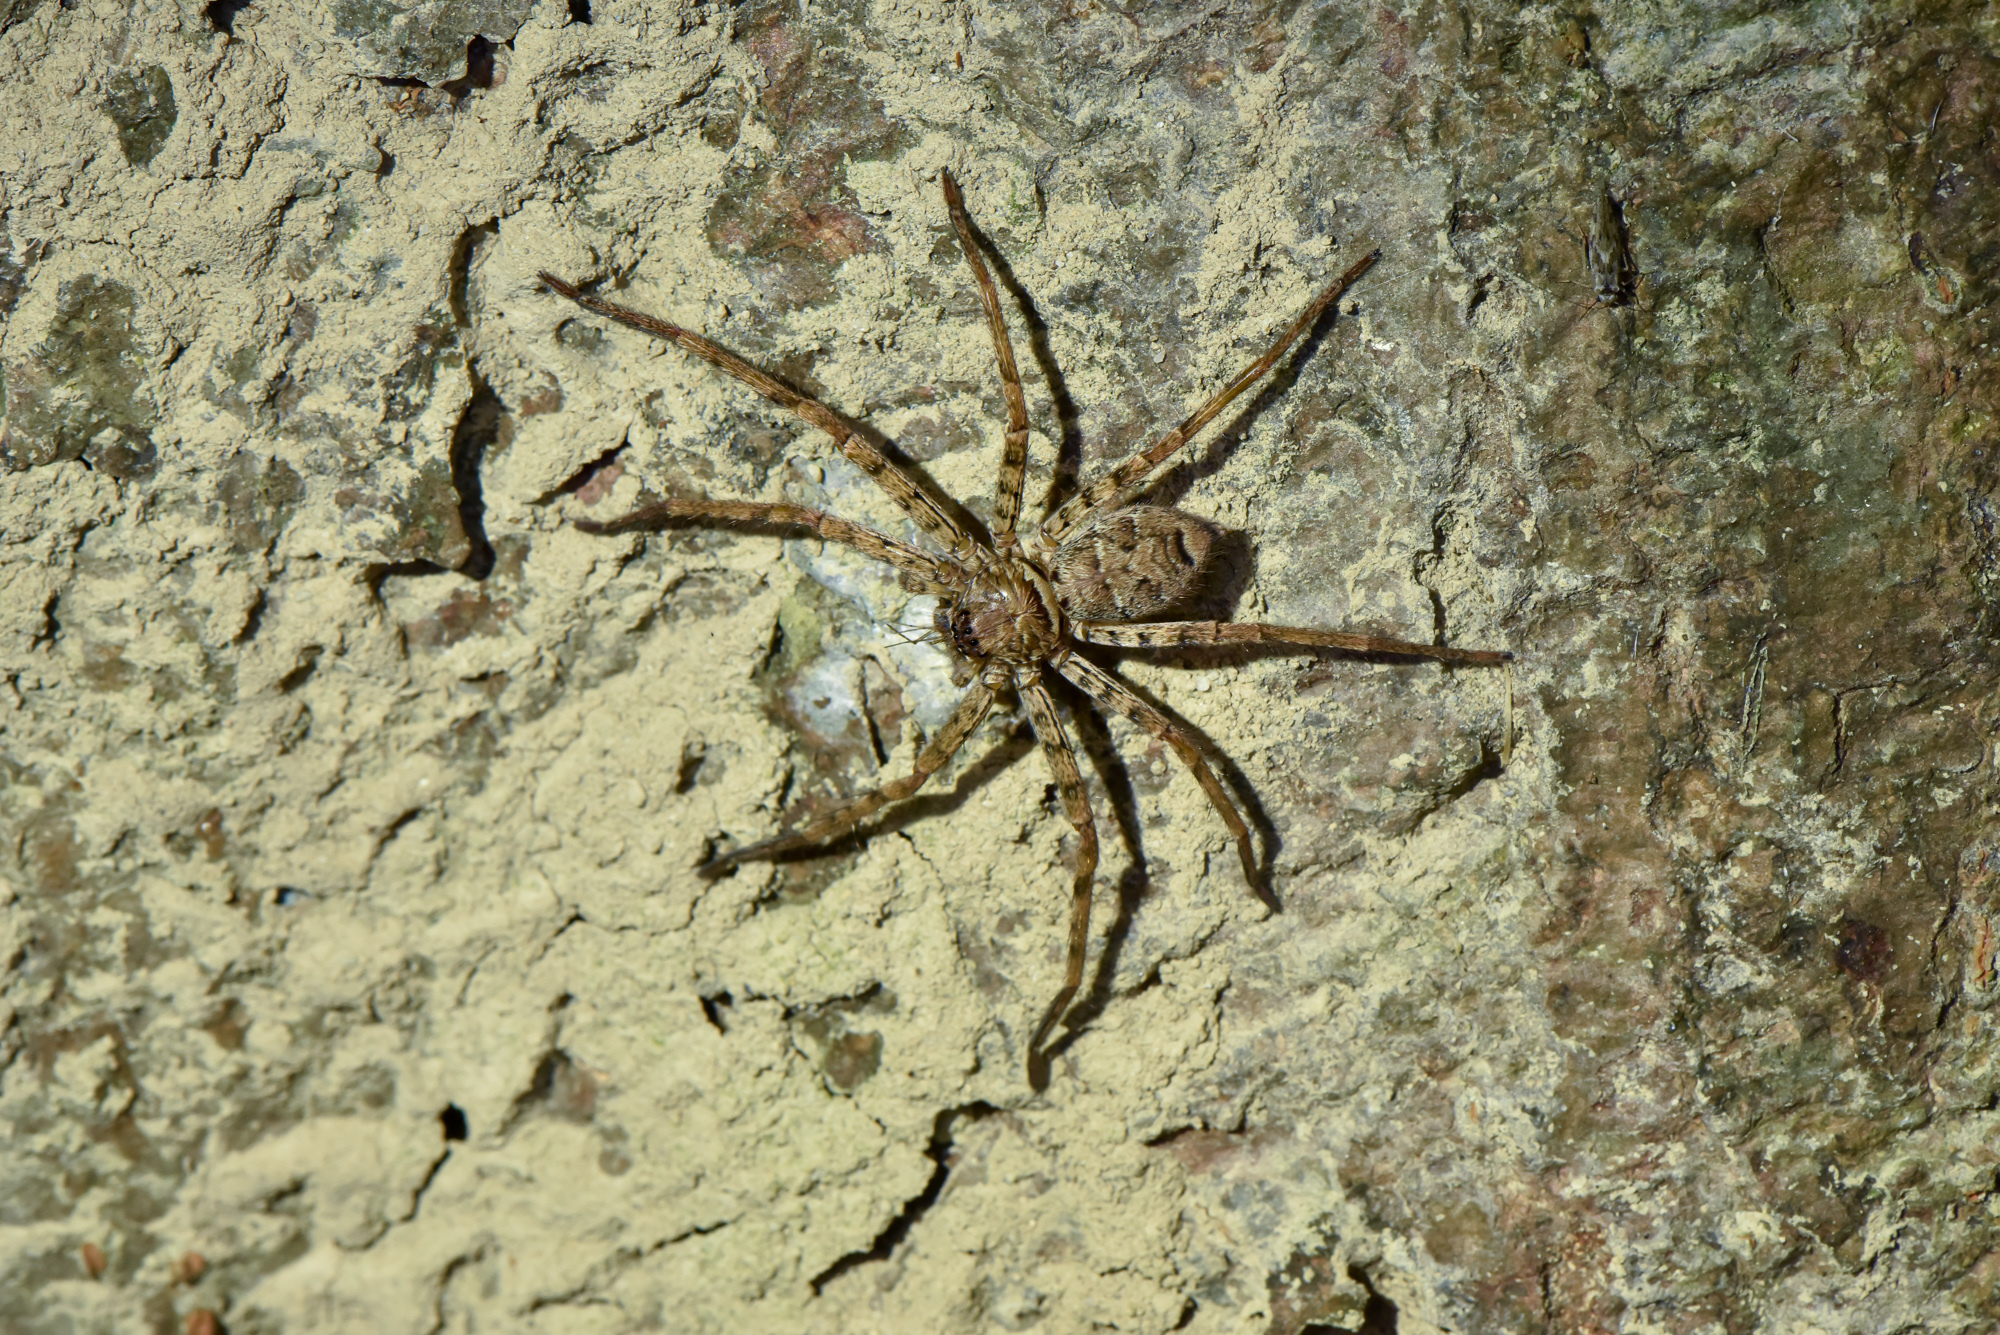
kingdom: Animalia
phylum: Arthropoda
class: Arachnida
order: Araneae
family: Sparassidae
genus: Heteropoda
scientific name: Heteropoda venatoria
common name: Huntsman spider
